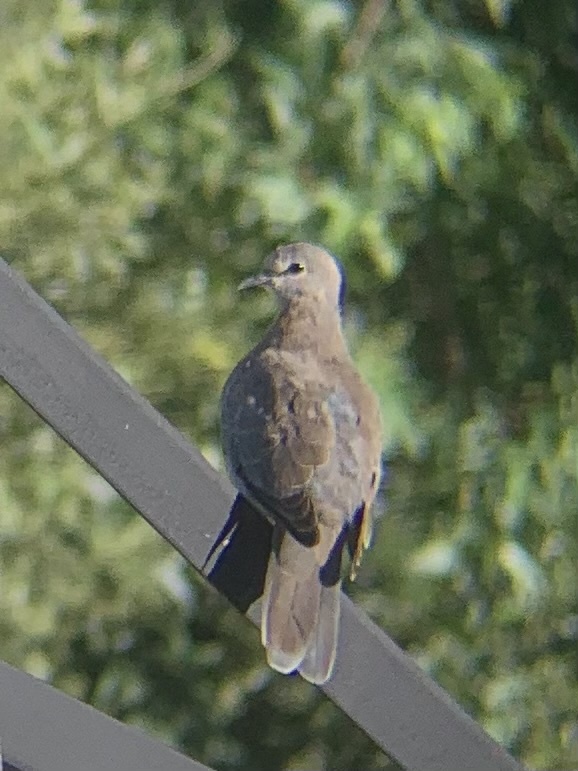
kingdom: Animalia
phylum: Chordata
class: Aves
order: Columbiformes
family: Columbidae
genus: Spilopelia
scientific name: Spilopelia senegalensis
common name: Laughing dove
